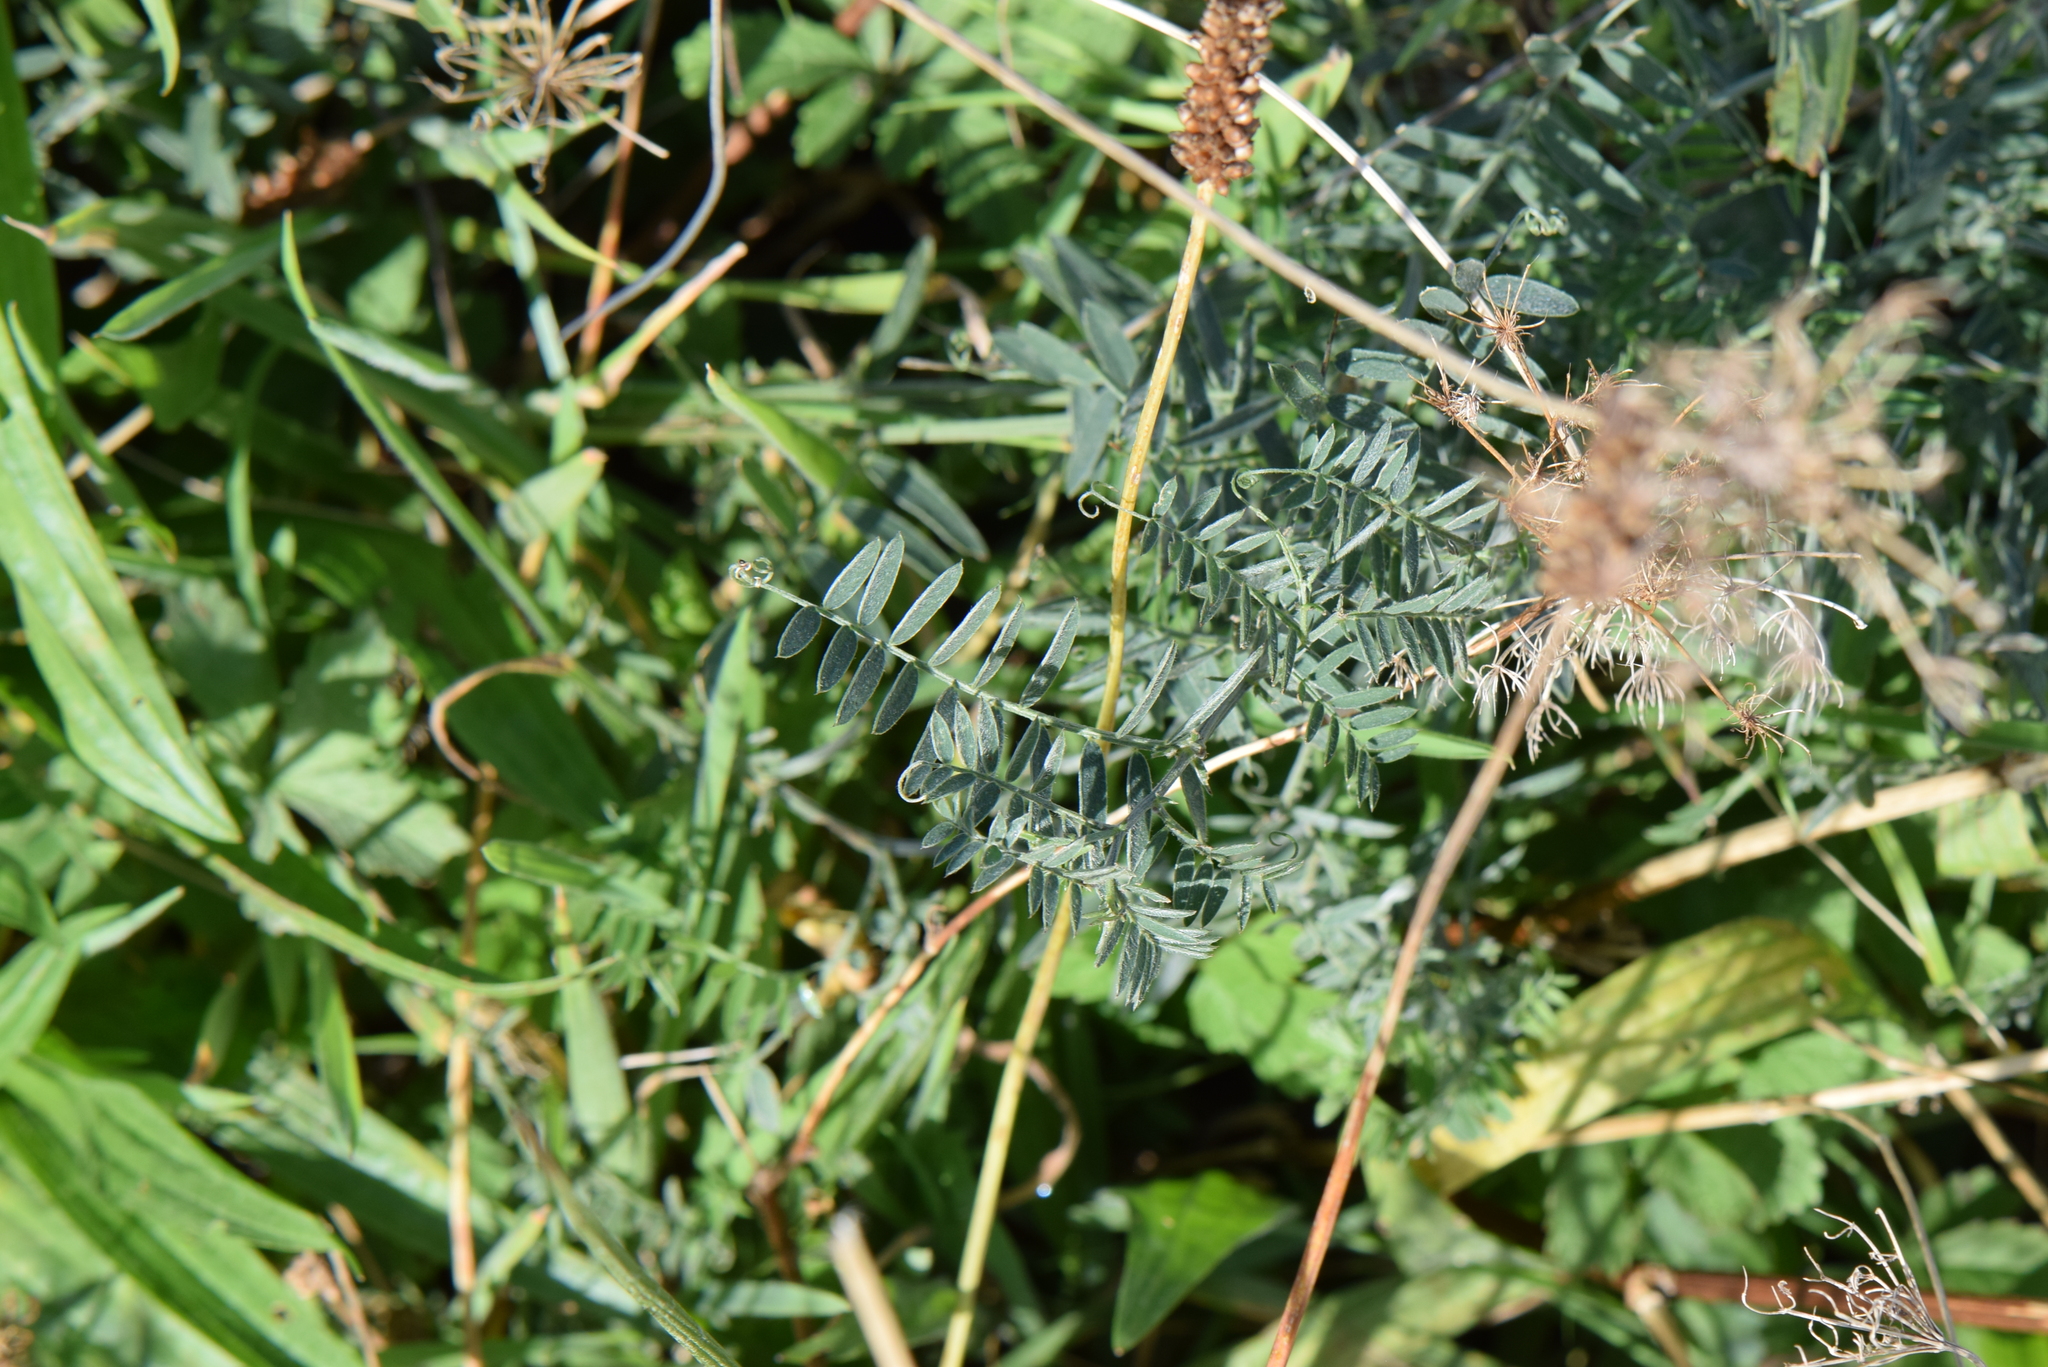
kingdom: Plantae
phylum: Tracheophyta
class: Magnoliopsida
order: Fabales
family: Fabaceae
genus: Vicia
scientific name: Vicia cracca
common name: Bird vetch
